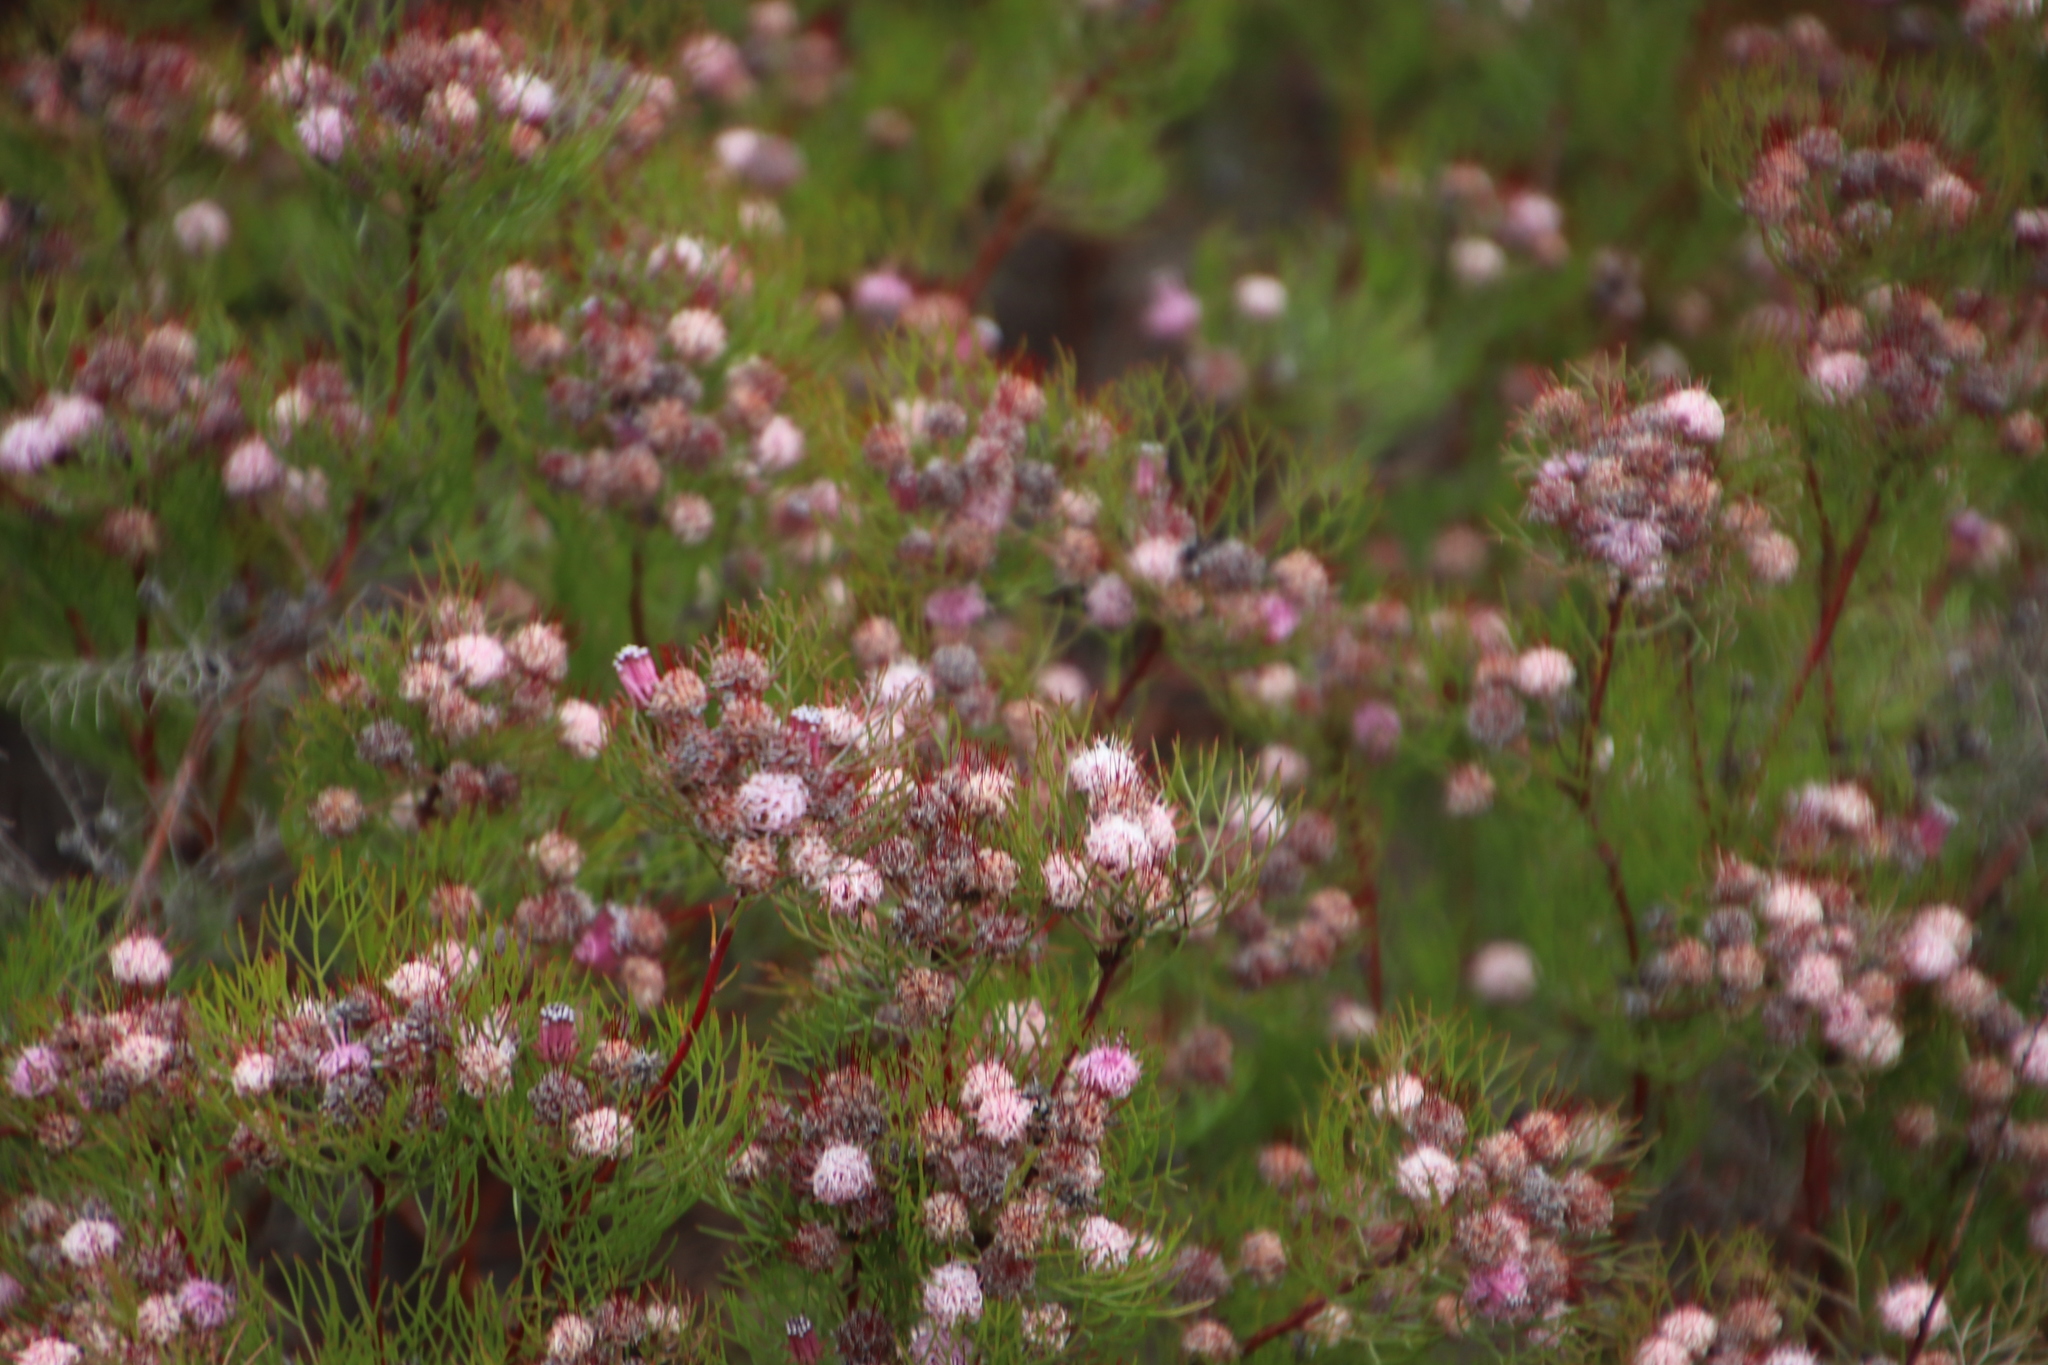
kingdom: Plantae
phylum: Tracheophyta
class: Magnoliopsida
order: Proteales
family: Proteaceae
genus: Serruria
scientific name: Serruria fasciflora
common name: Common pin spiderhead
